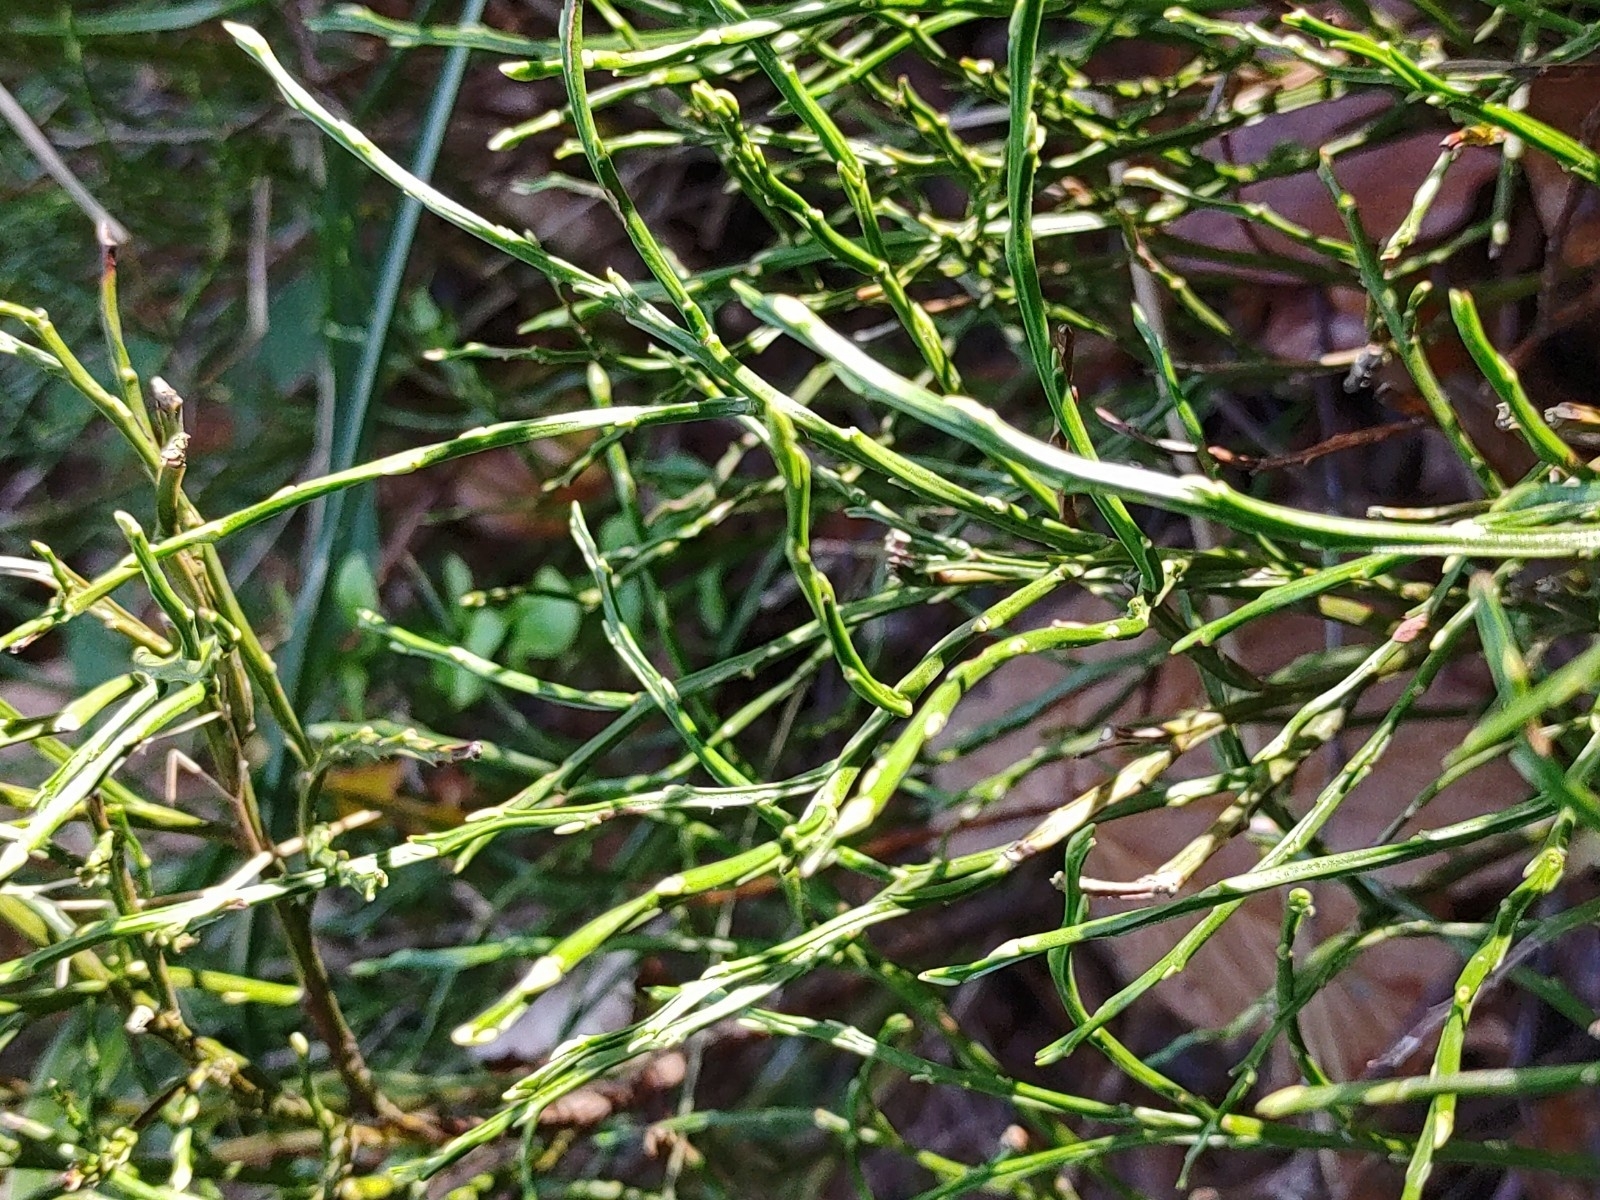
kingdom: Plantae
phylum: Tracheophyta
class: Magnoliopsida
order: Ericales
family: Ericaceae
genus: Vaccinium
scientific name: Vaccinium myrtillus
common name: Bilberry
